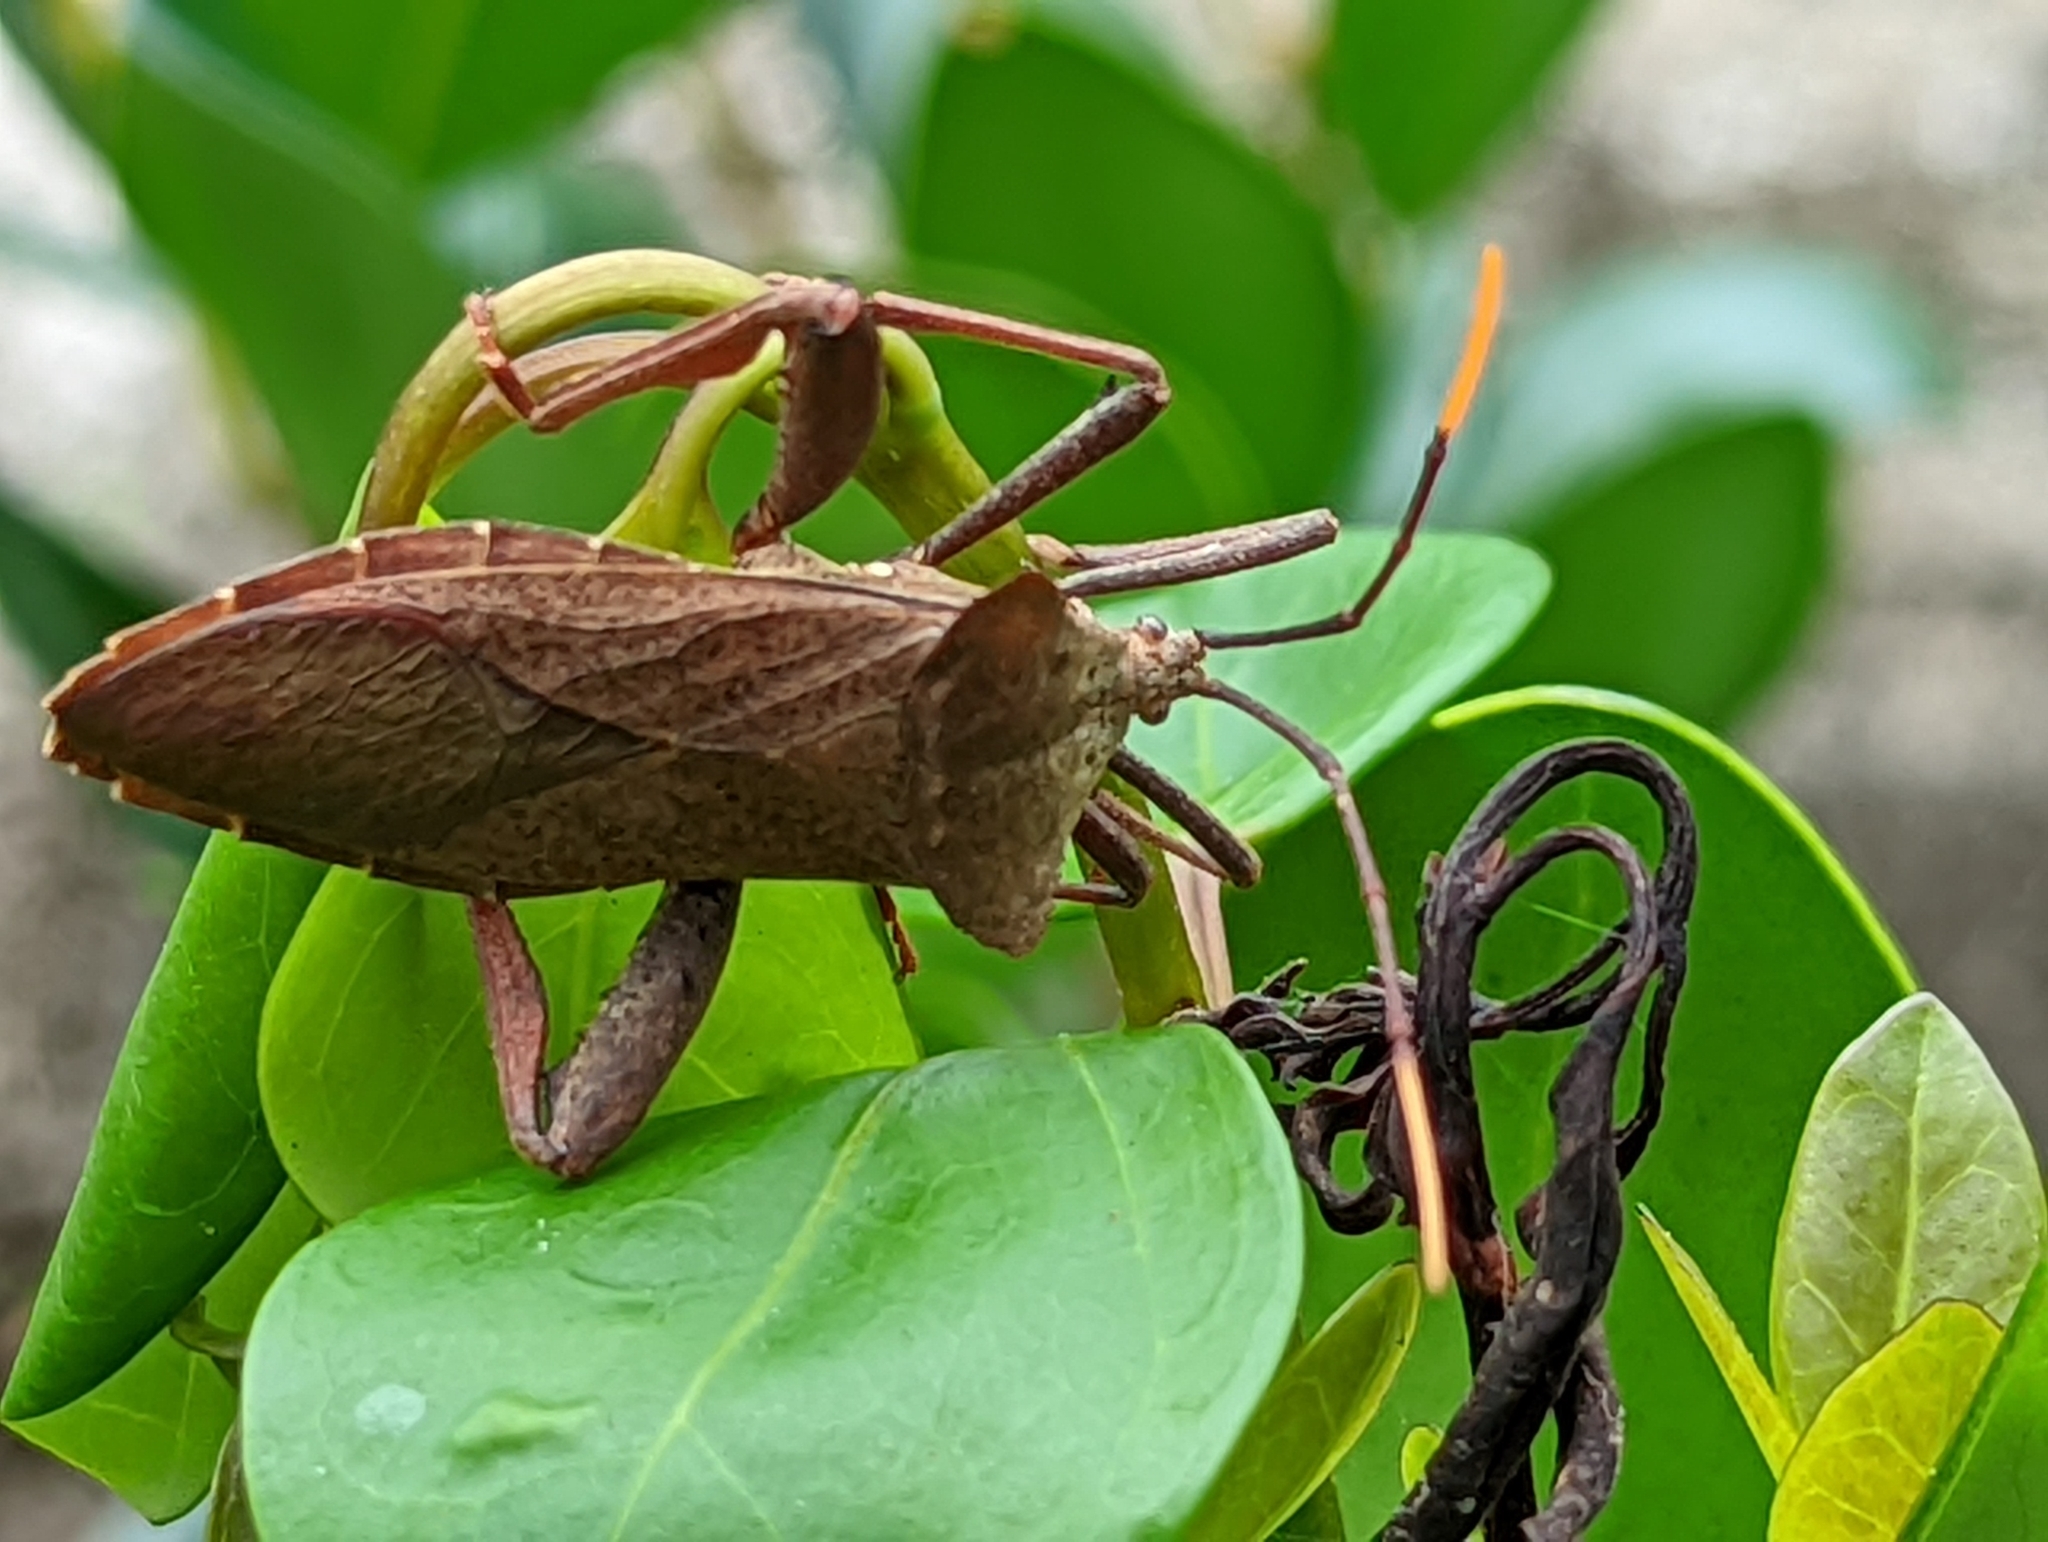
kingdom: Animalia
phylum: Arthropoda
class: Insecta
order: Hemiptera
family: Coreidae
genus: Rhamnomia
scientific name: Rhamnomia dubia
